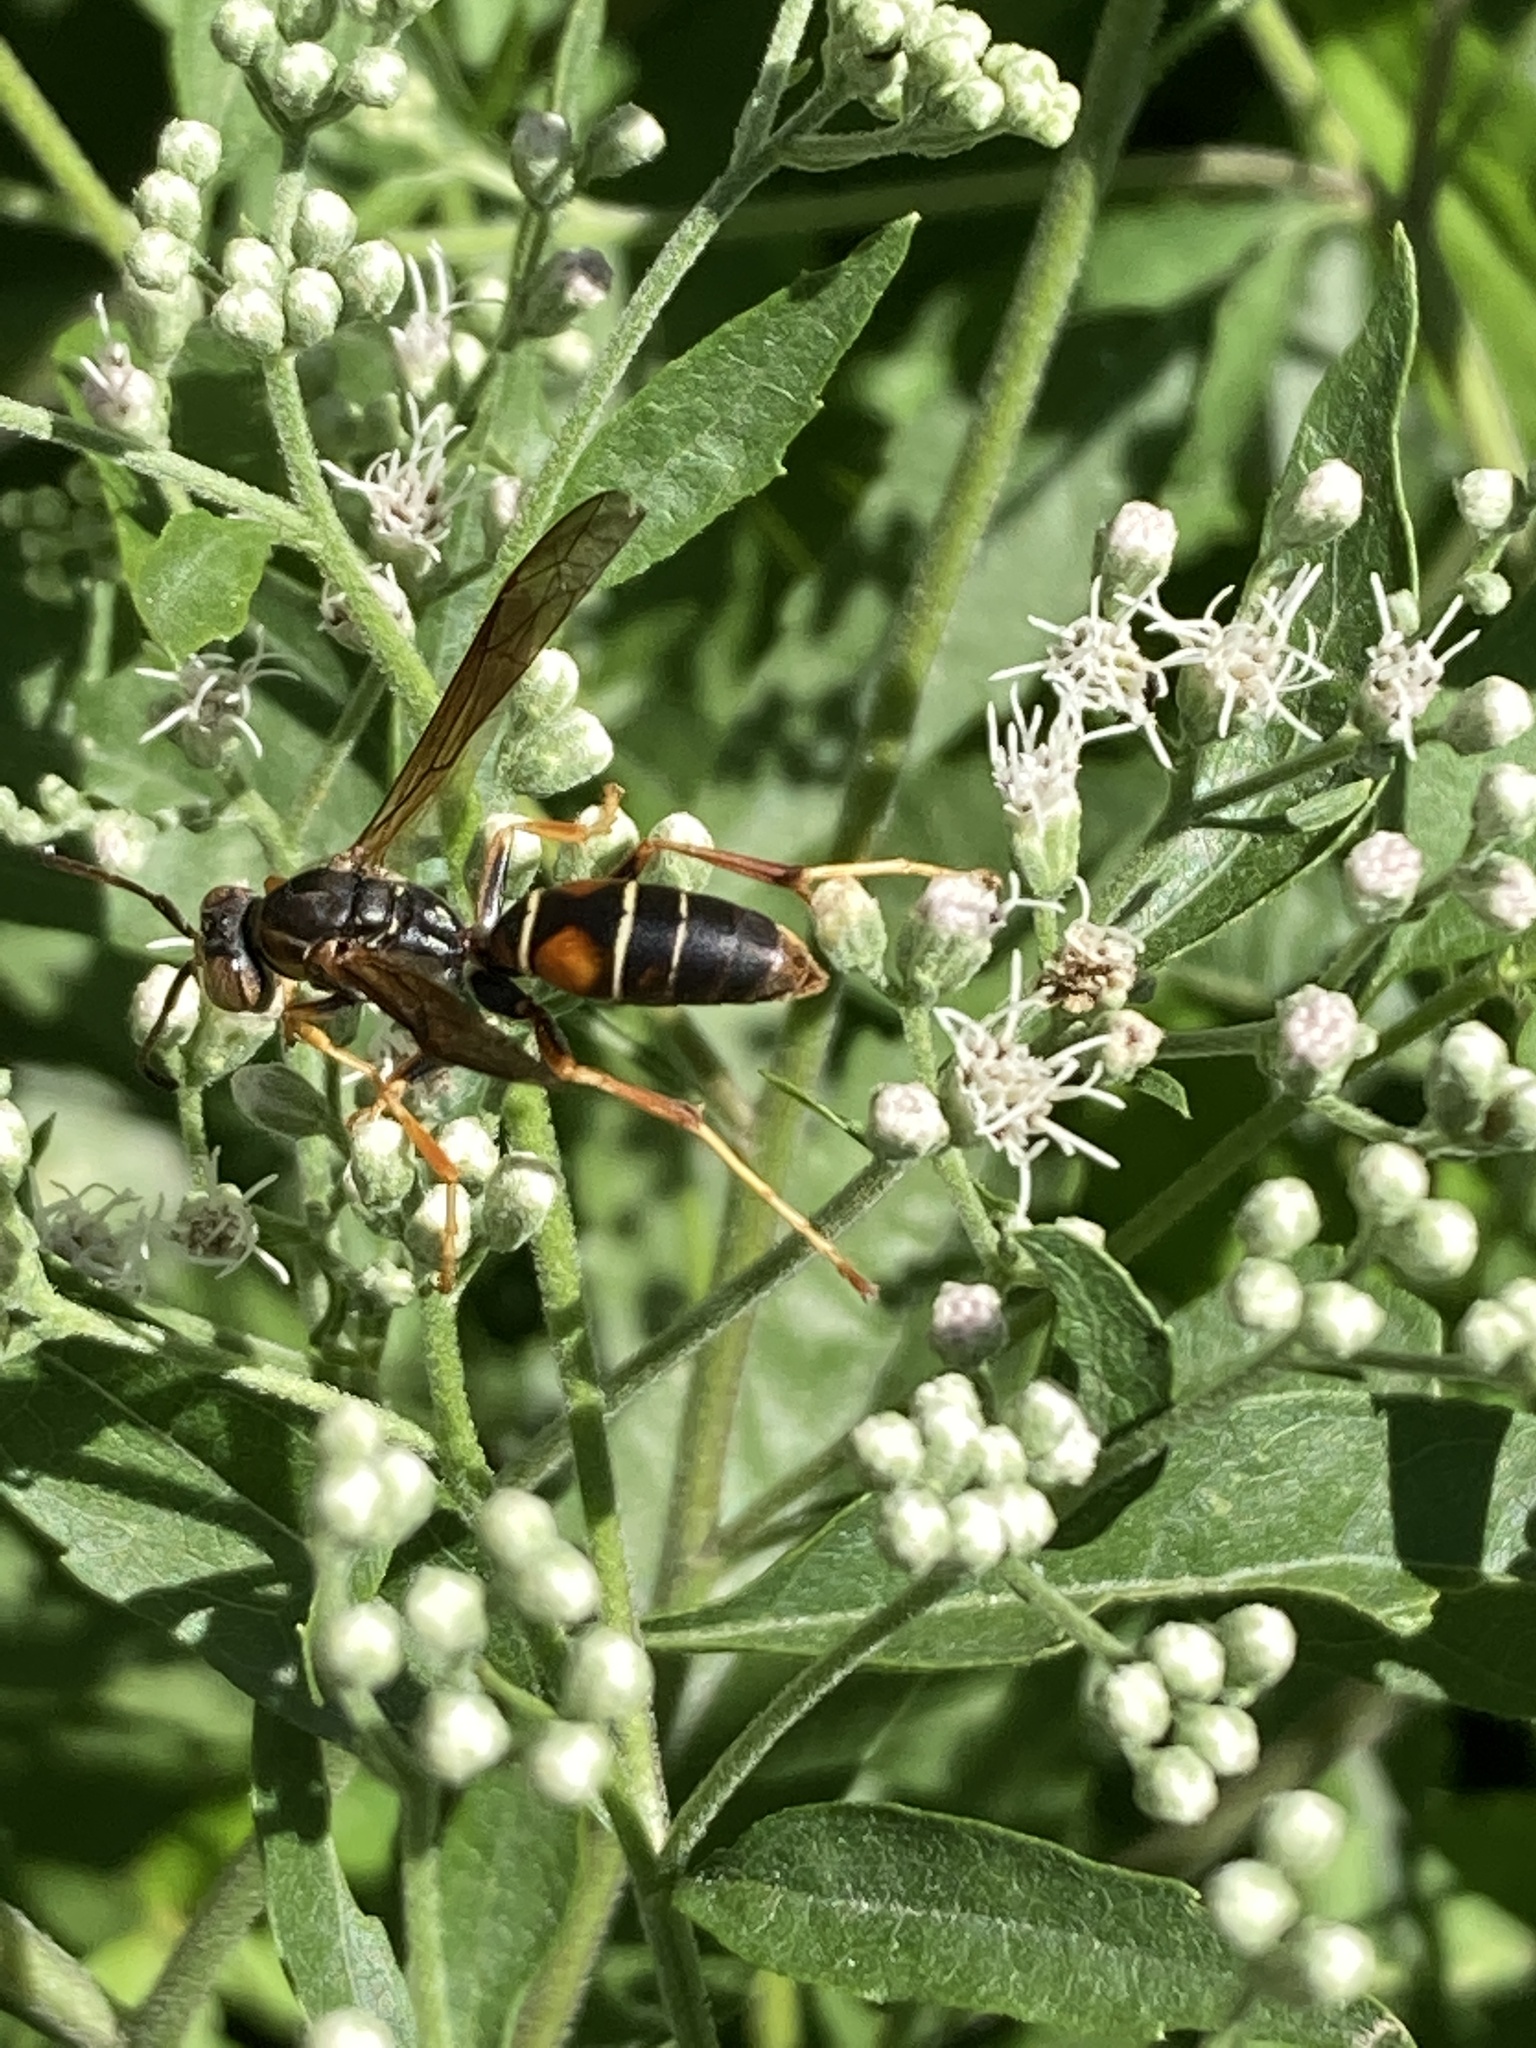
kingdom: Animalia
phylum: Arthropoda
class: Insecta
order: Hymenoptera
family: Eumenidae
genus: Polistes
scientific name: Polistes fuscatus
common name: Dark paper wasp
